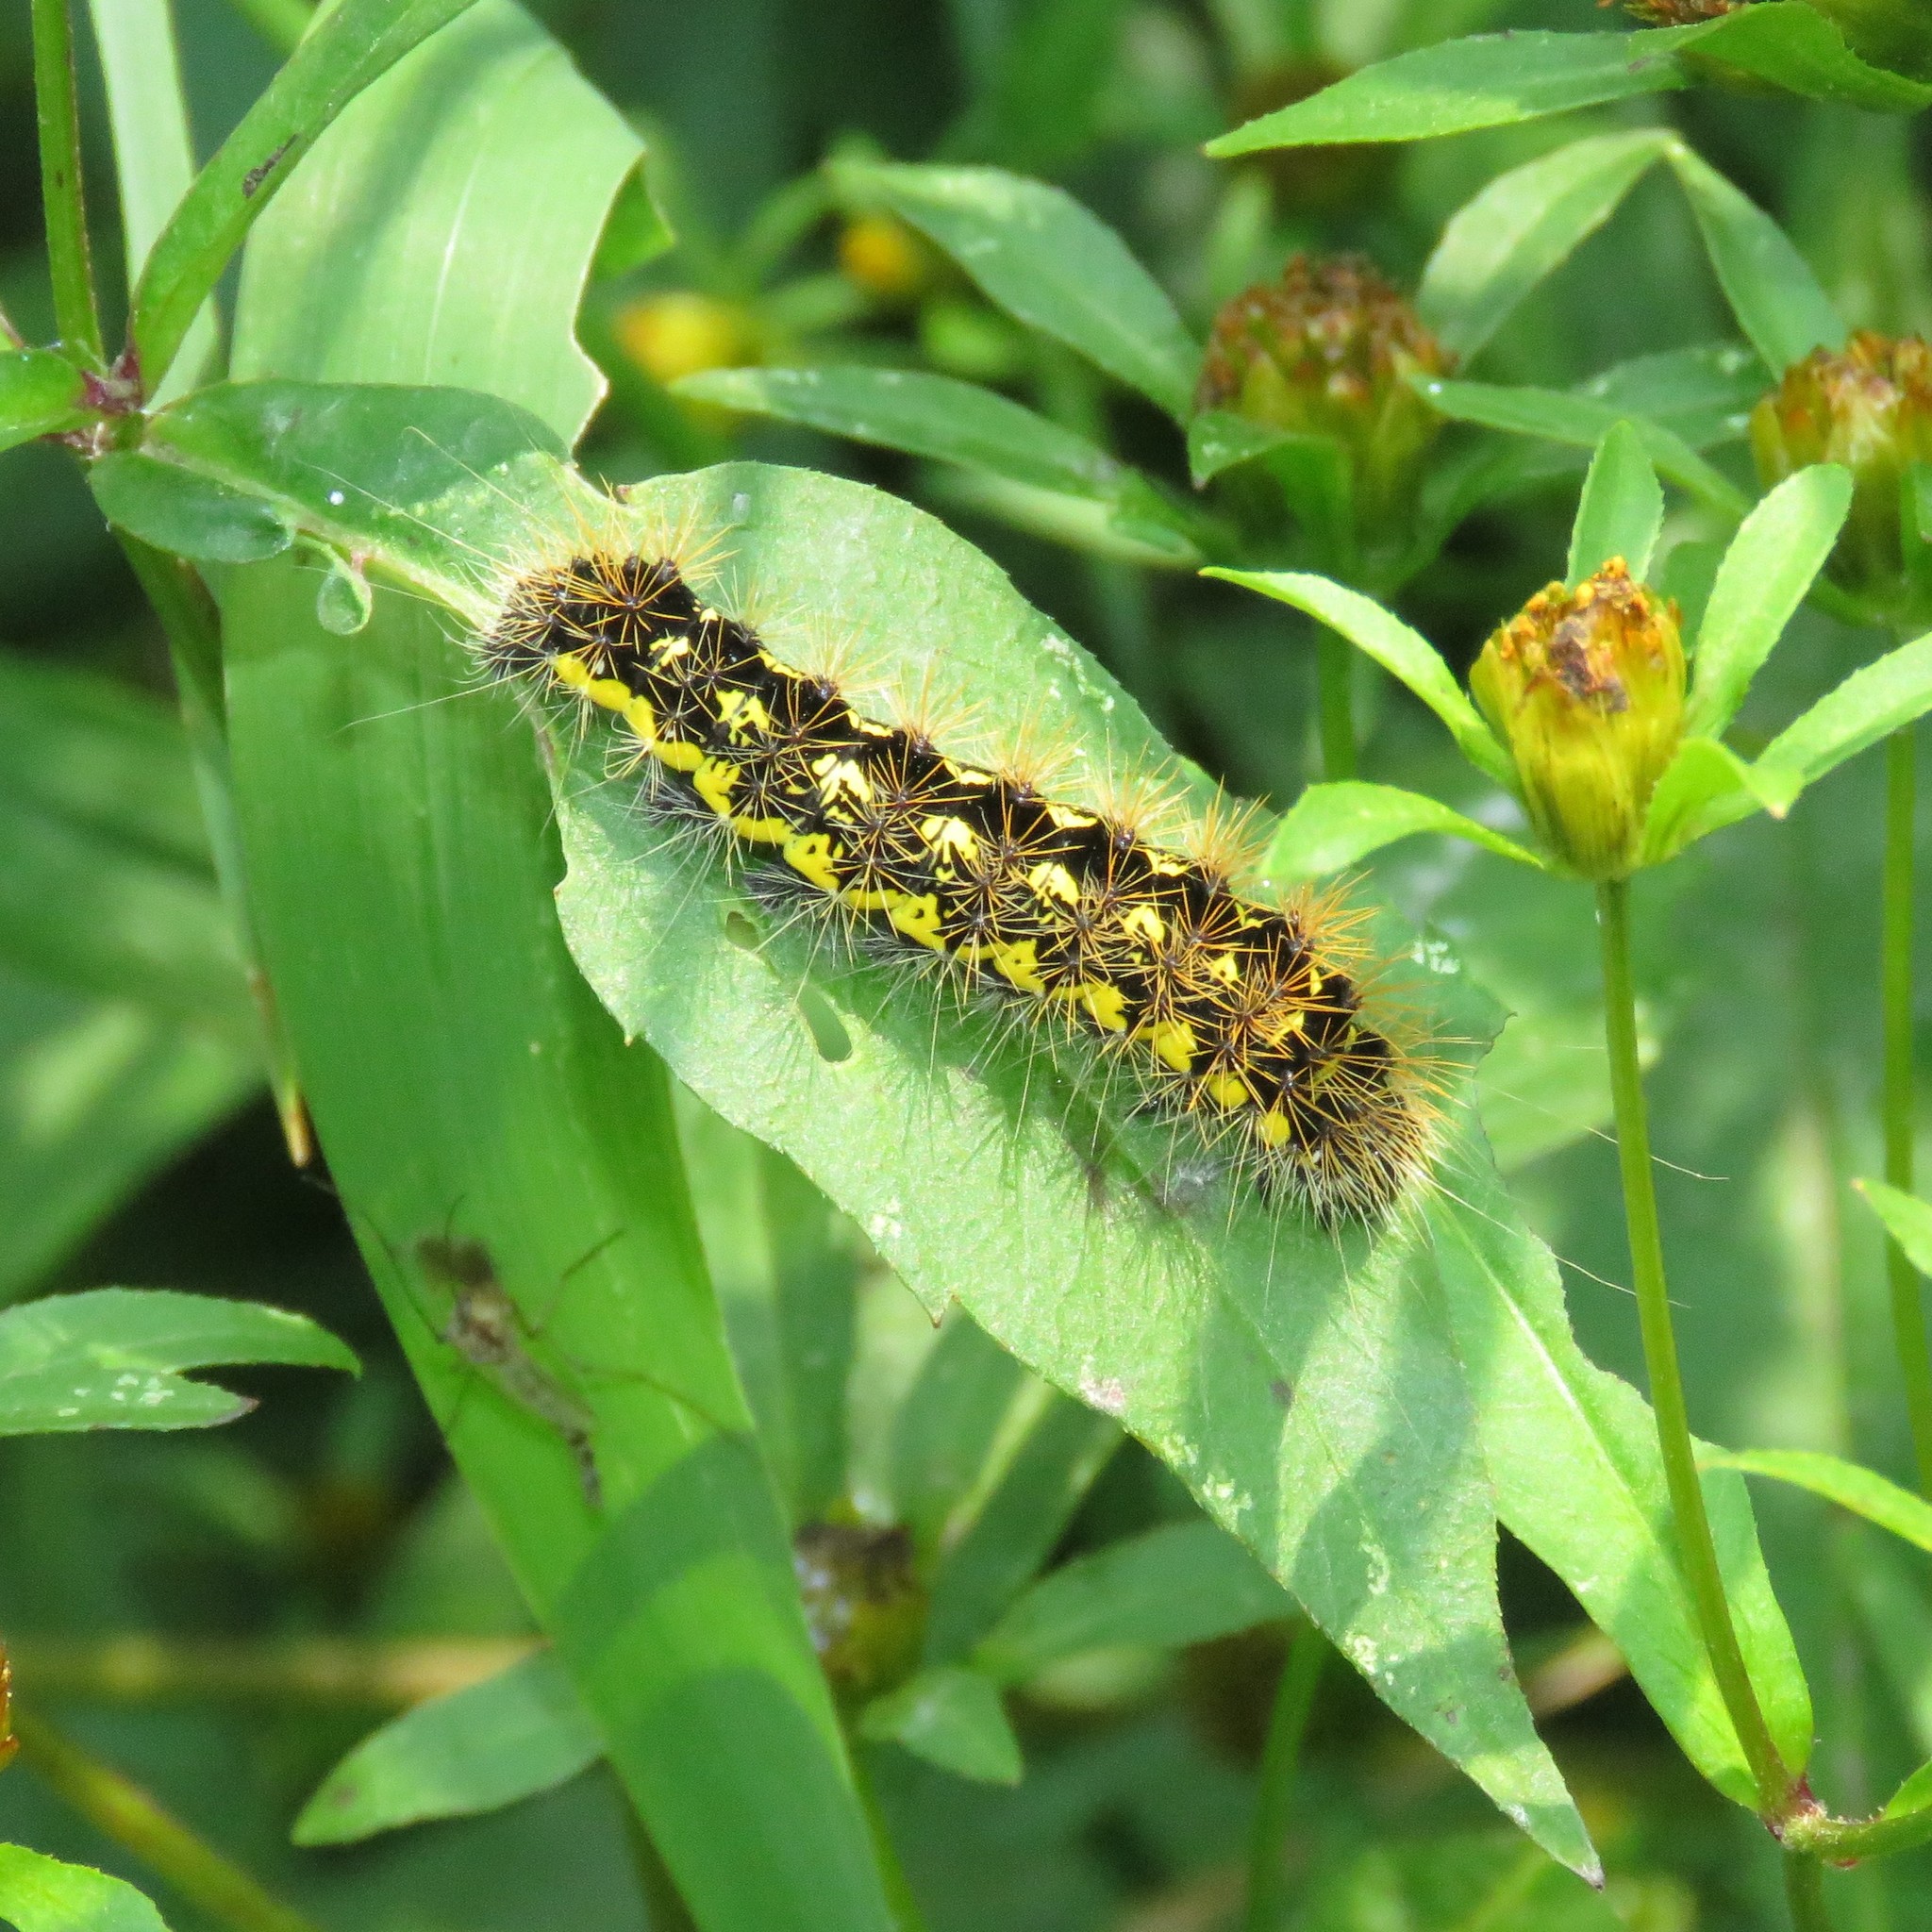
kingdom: Animalia
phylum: Arthropoda
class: Insecta
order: Lepidoptera
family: Noctuidae
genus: Acronicta
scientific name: Acronicta oblinita
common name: Smeared dagger
